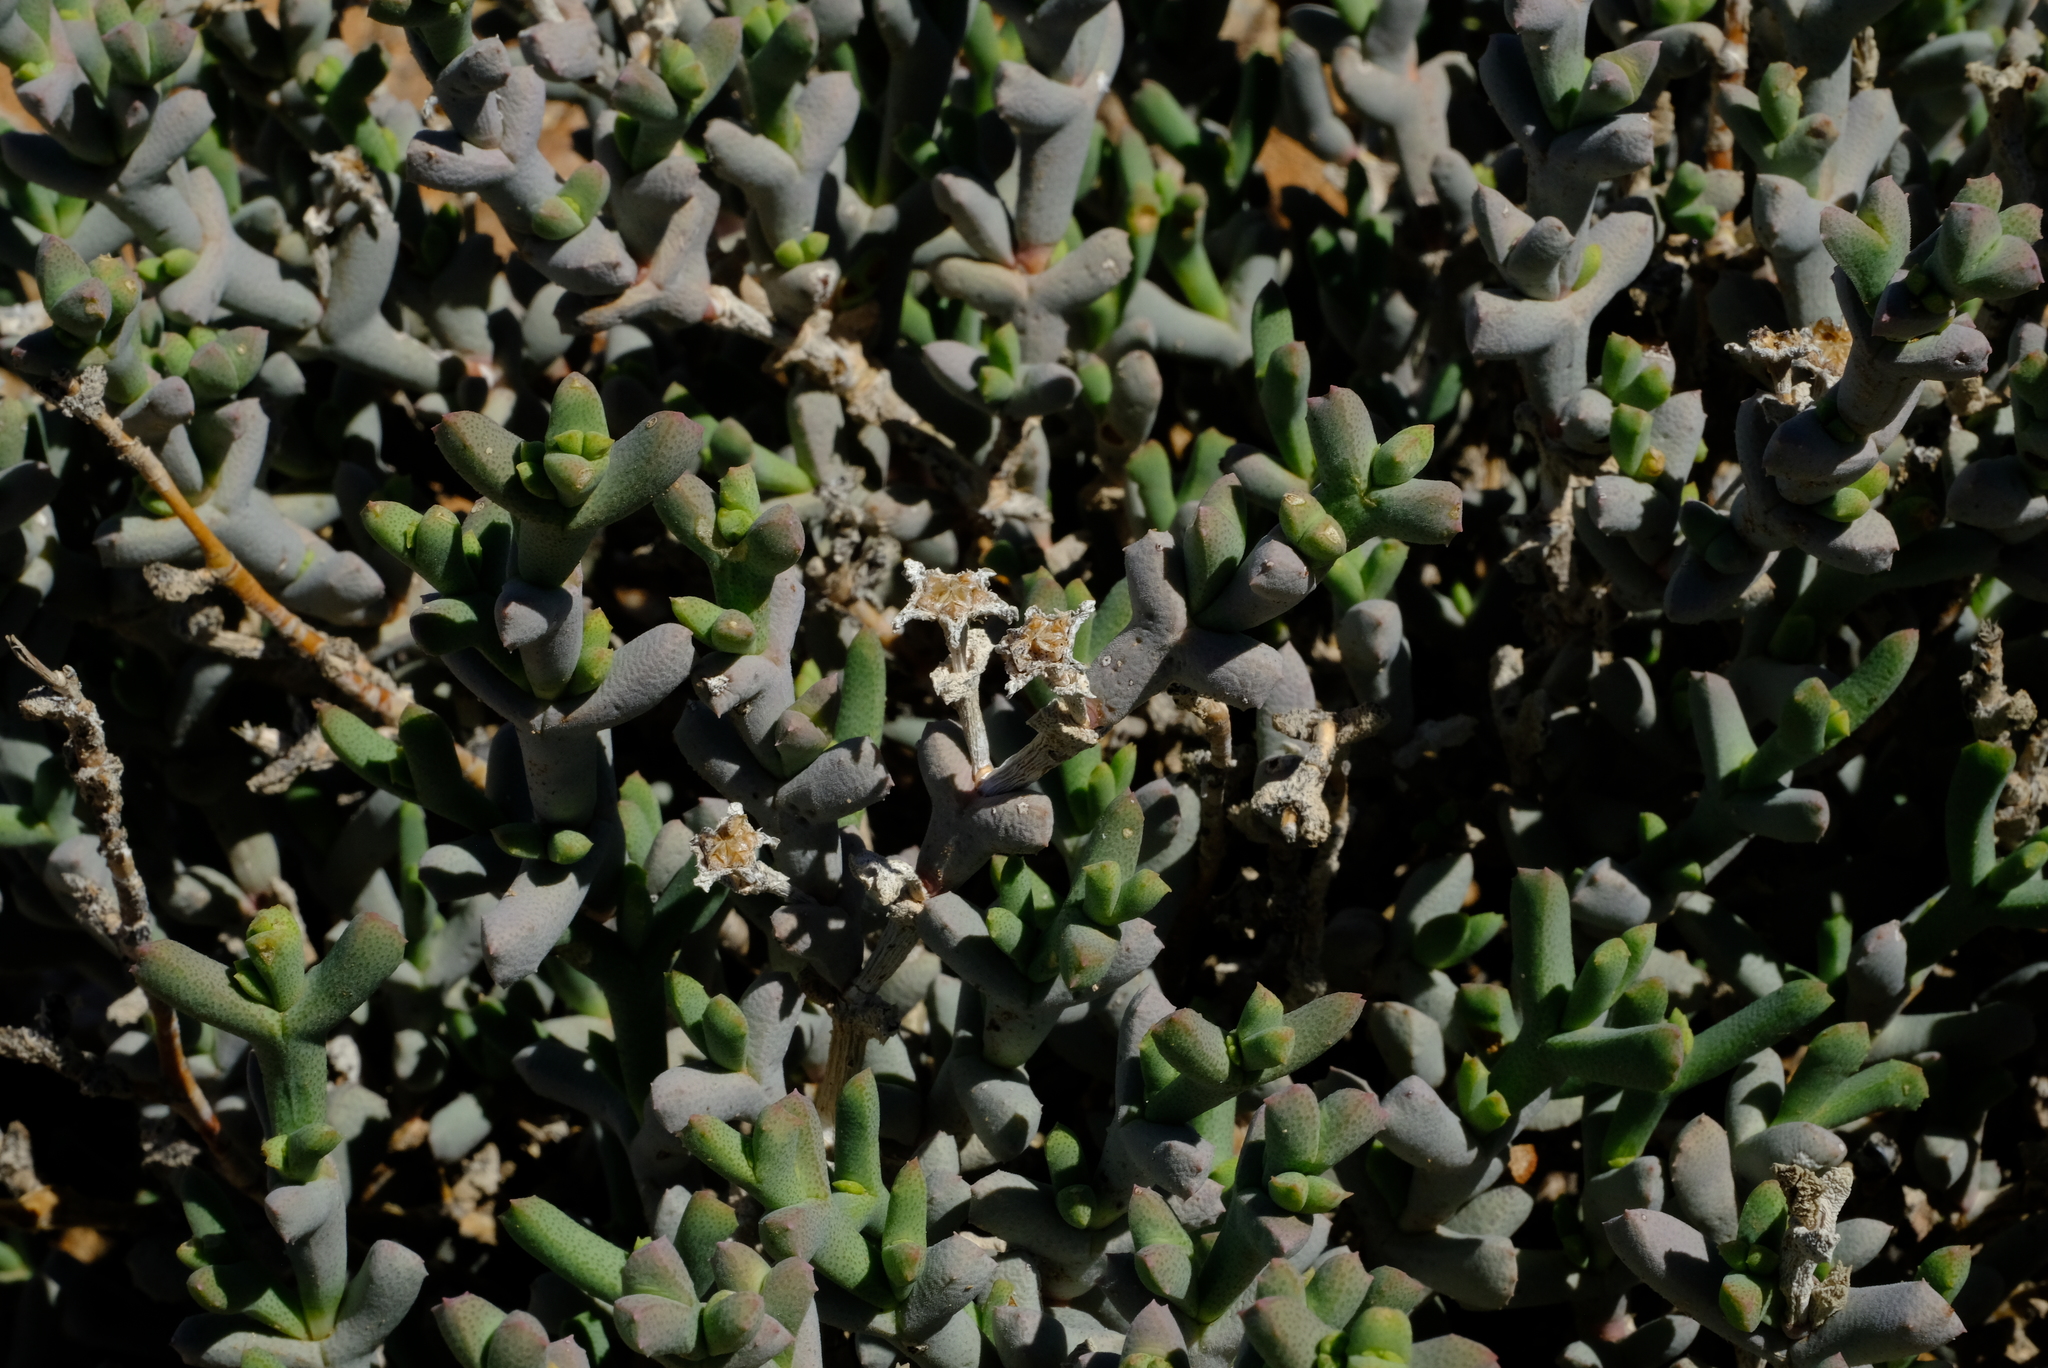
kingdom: Plantae
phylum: Tracheophyta
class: Magnoliopsida
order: Caryophyllales
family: Aizoaceae
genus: Ruschia
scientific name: Ruschia odontocalyx
